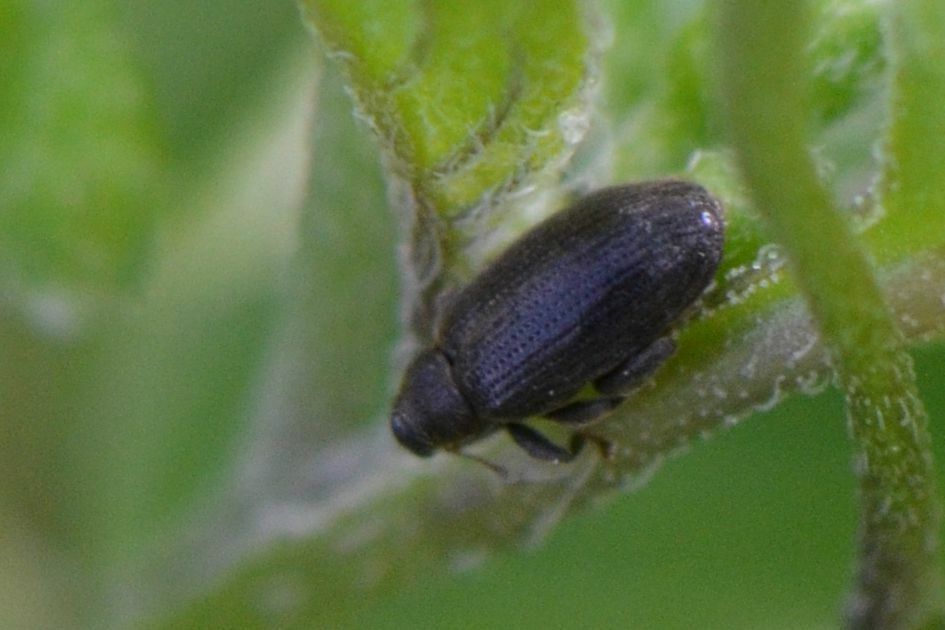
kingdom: Animalia
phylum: Arthropoda
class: Insecta
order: Coleoptera
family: Curculionidae
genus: Orchestes
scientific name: Orchestes fagi
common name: Beech leaf miner
